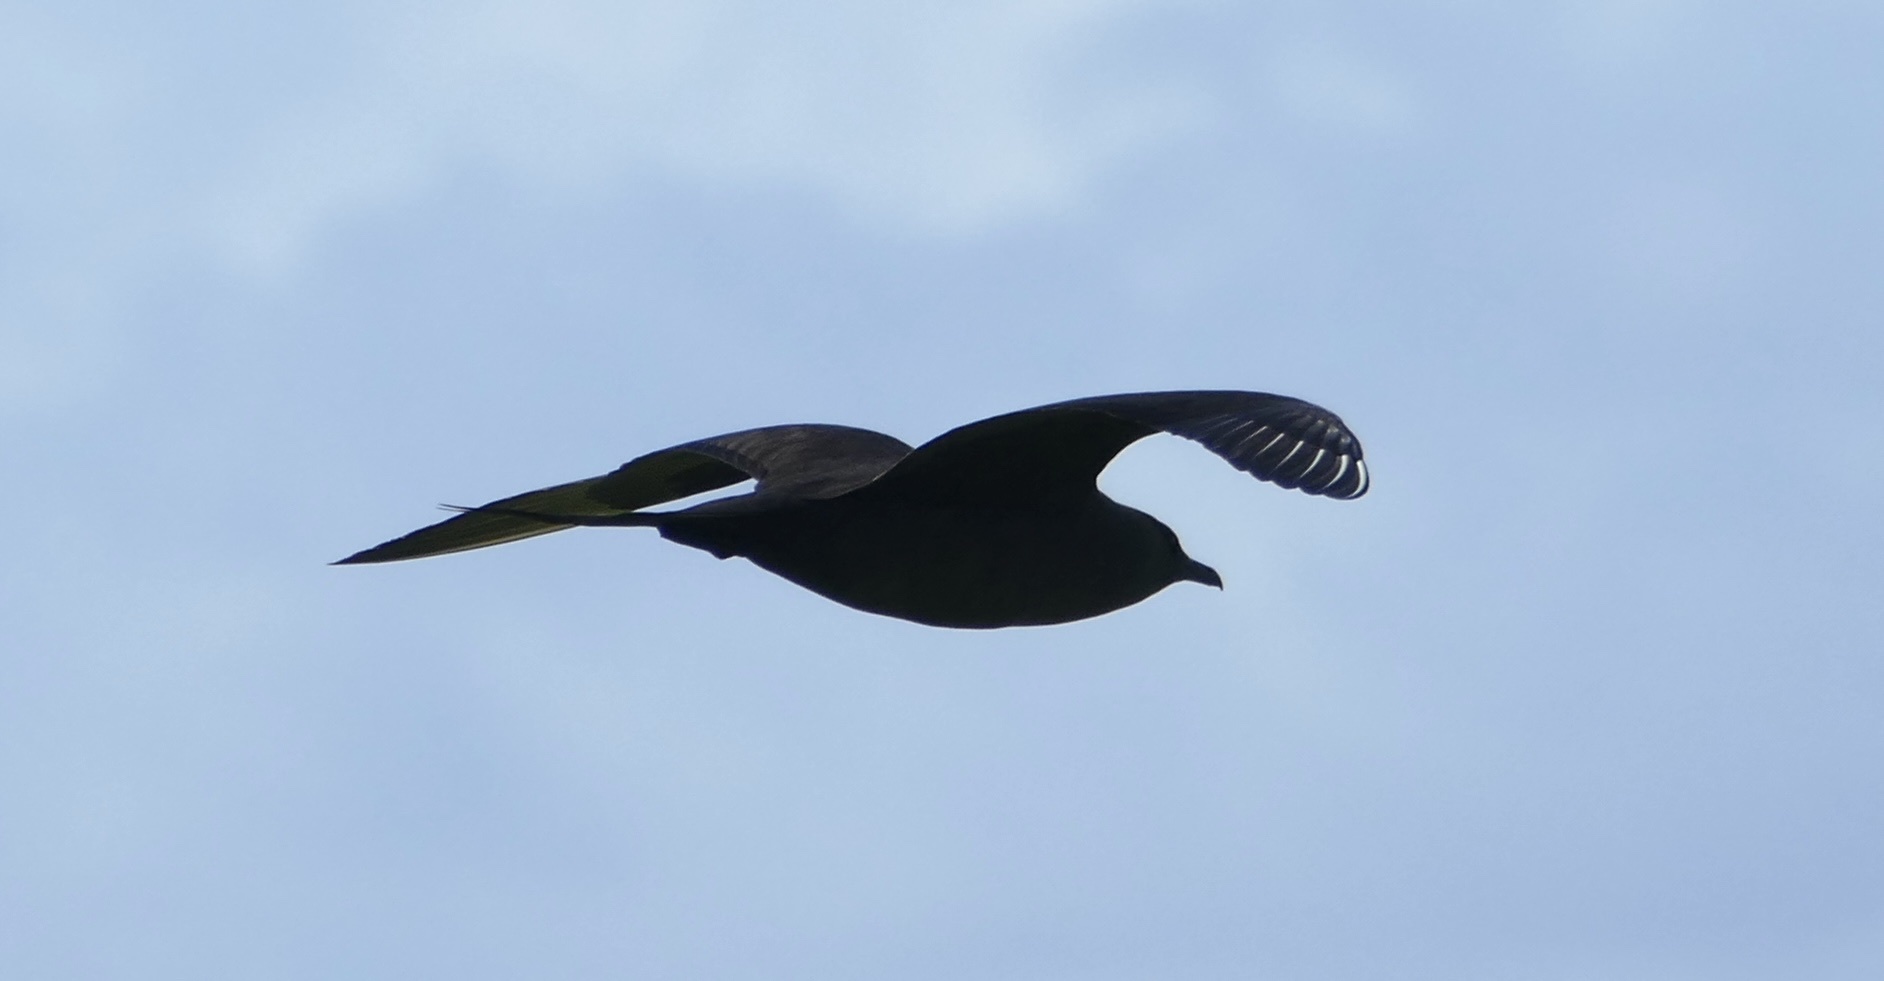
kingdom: Animalia
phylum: Chordata
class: Aves
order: Charadriiformes
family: Stercorariidae
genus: Stercorarius
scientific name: Stercorarius parasiticus
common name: Parasitic jaeger
